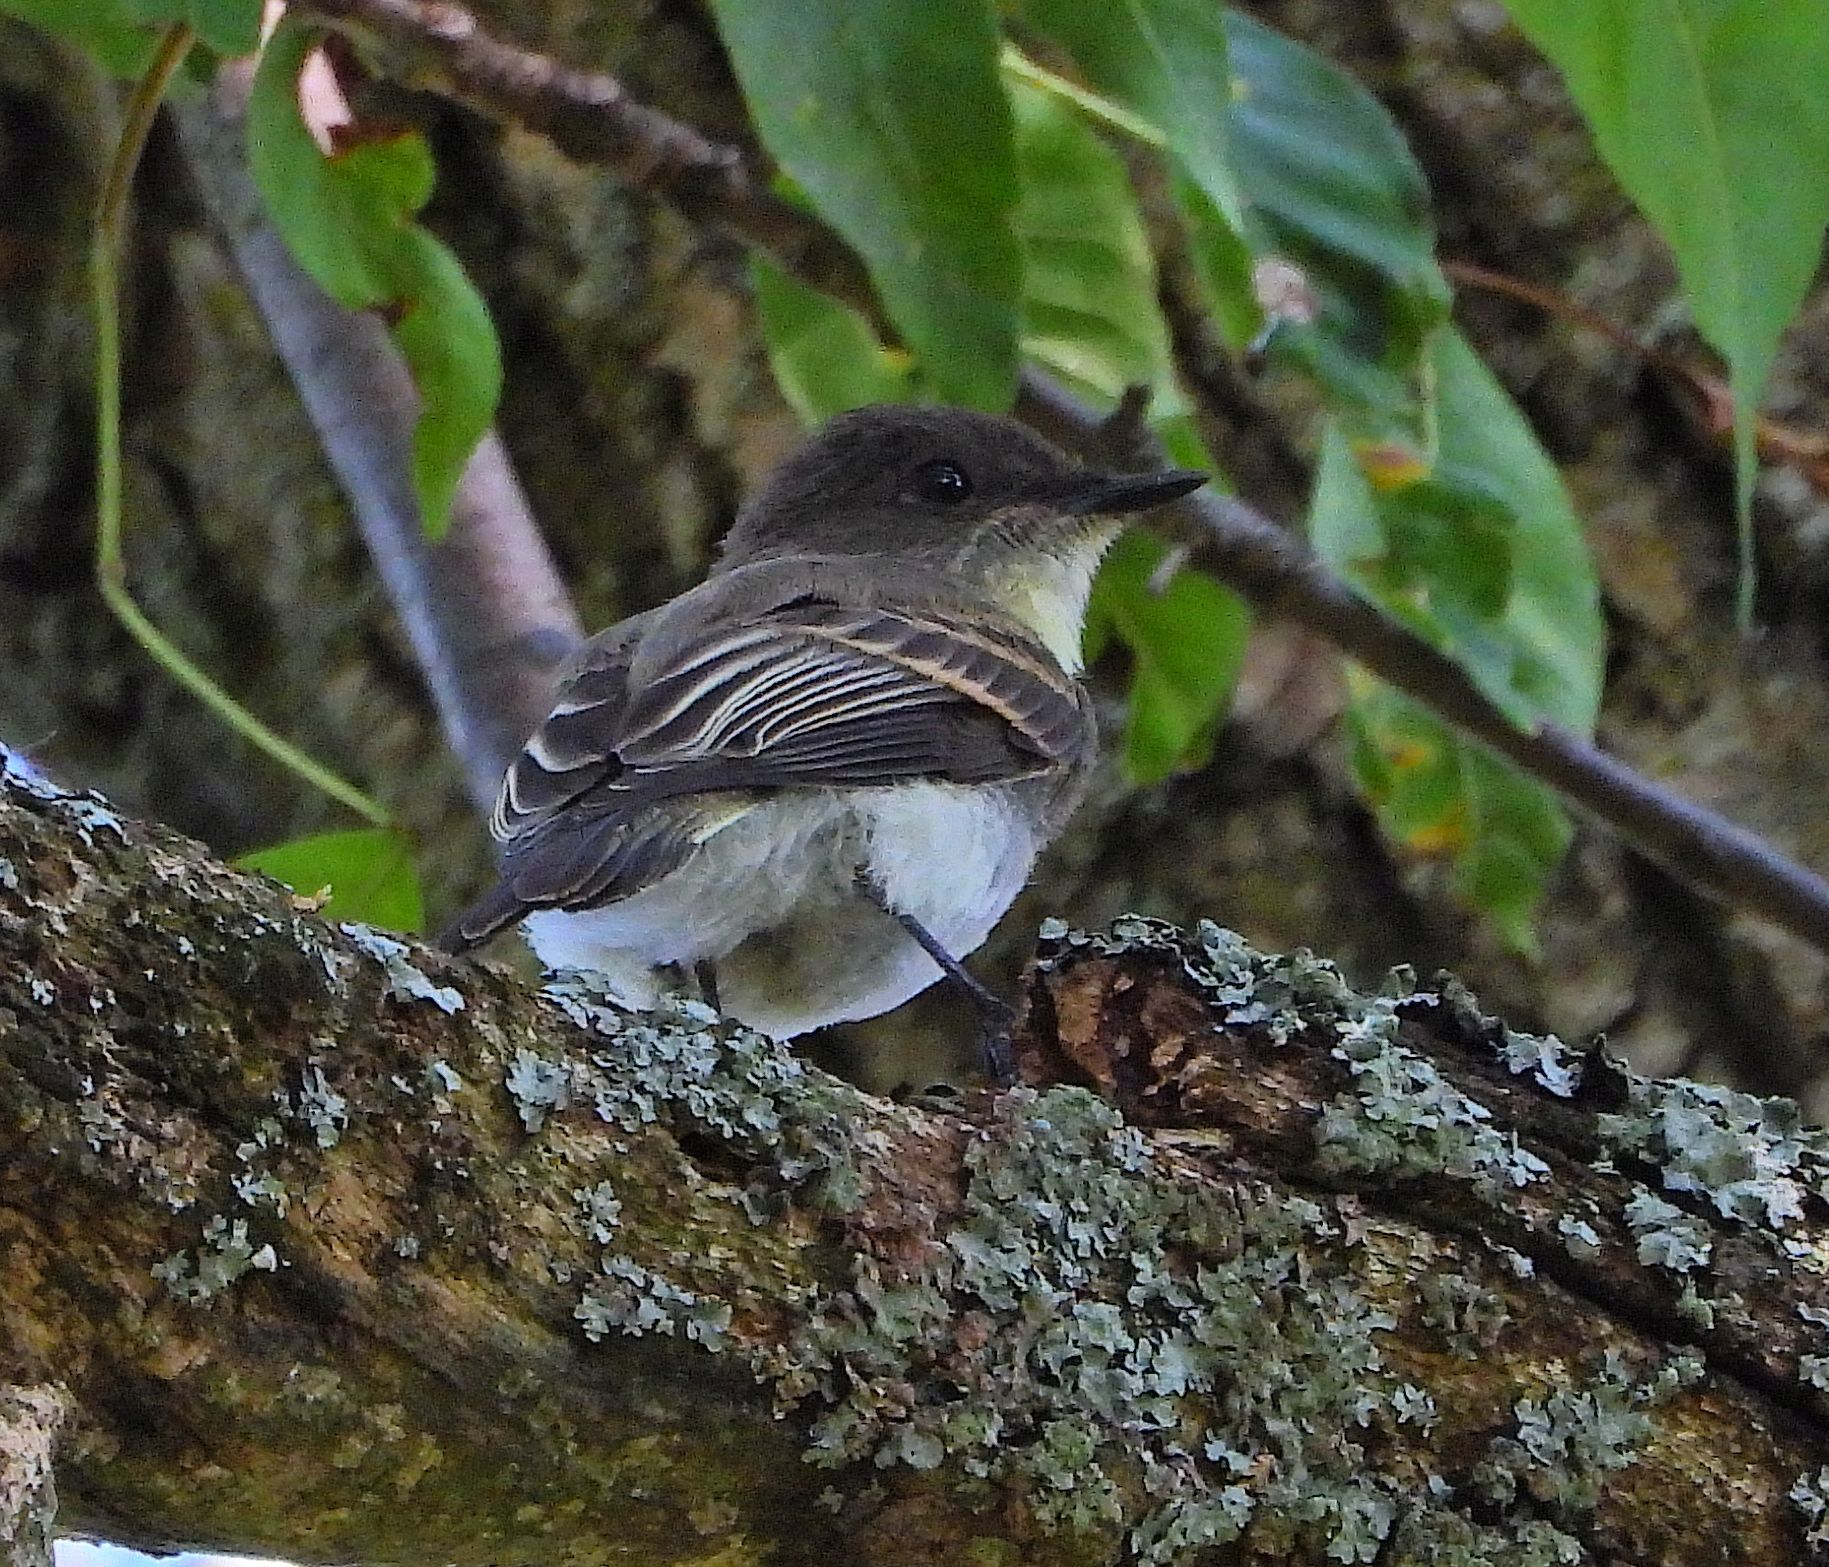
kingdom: Animalia
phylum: Chordata
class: Aves
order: Passeriformes
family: Tyrannidae
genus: Sayornis
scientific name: Sayornis phoebe
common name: Eastern phoebe
